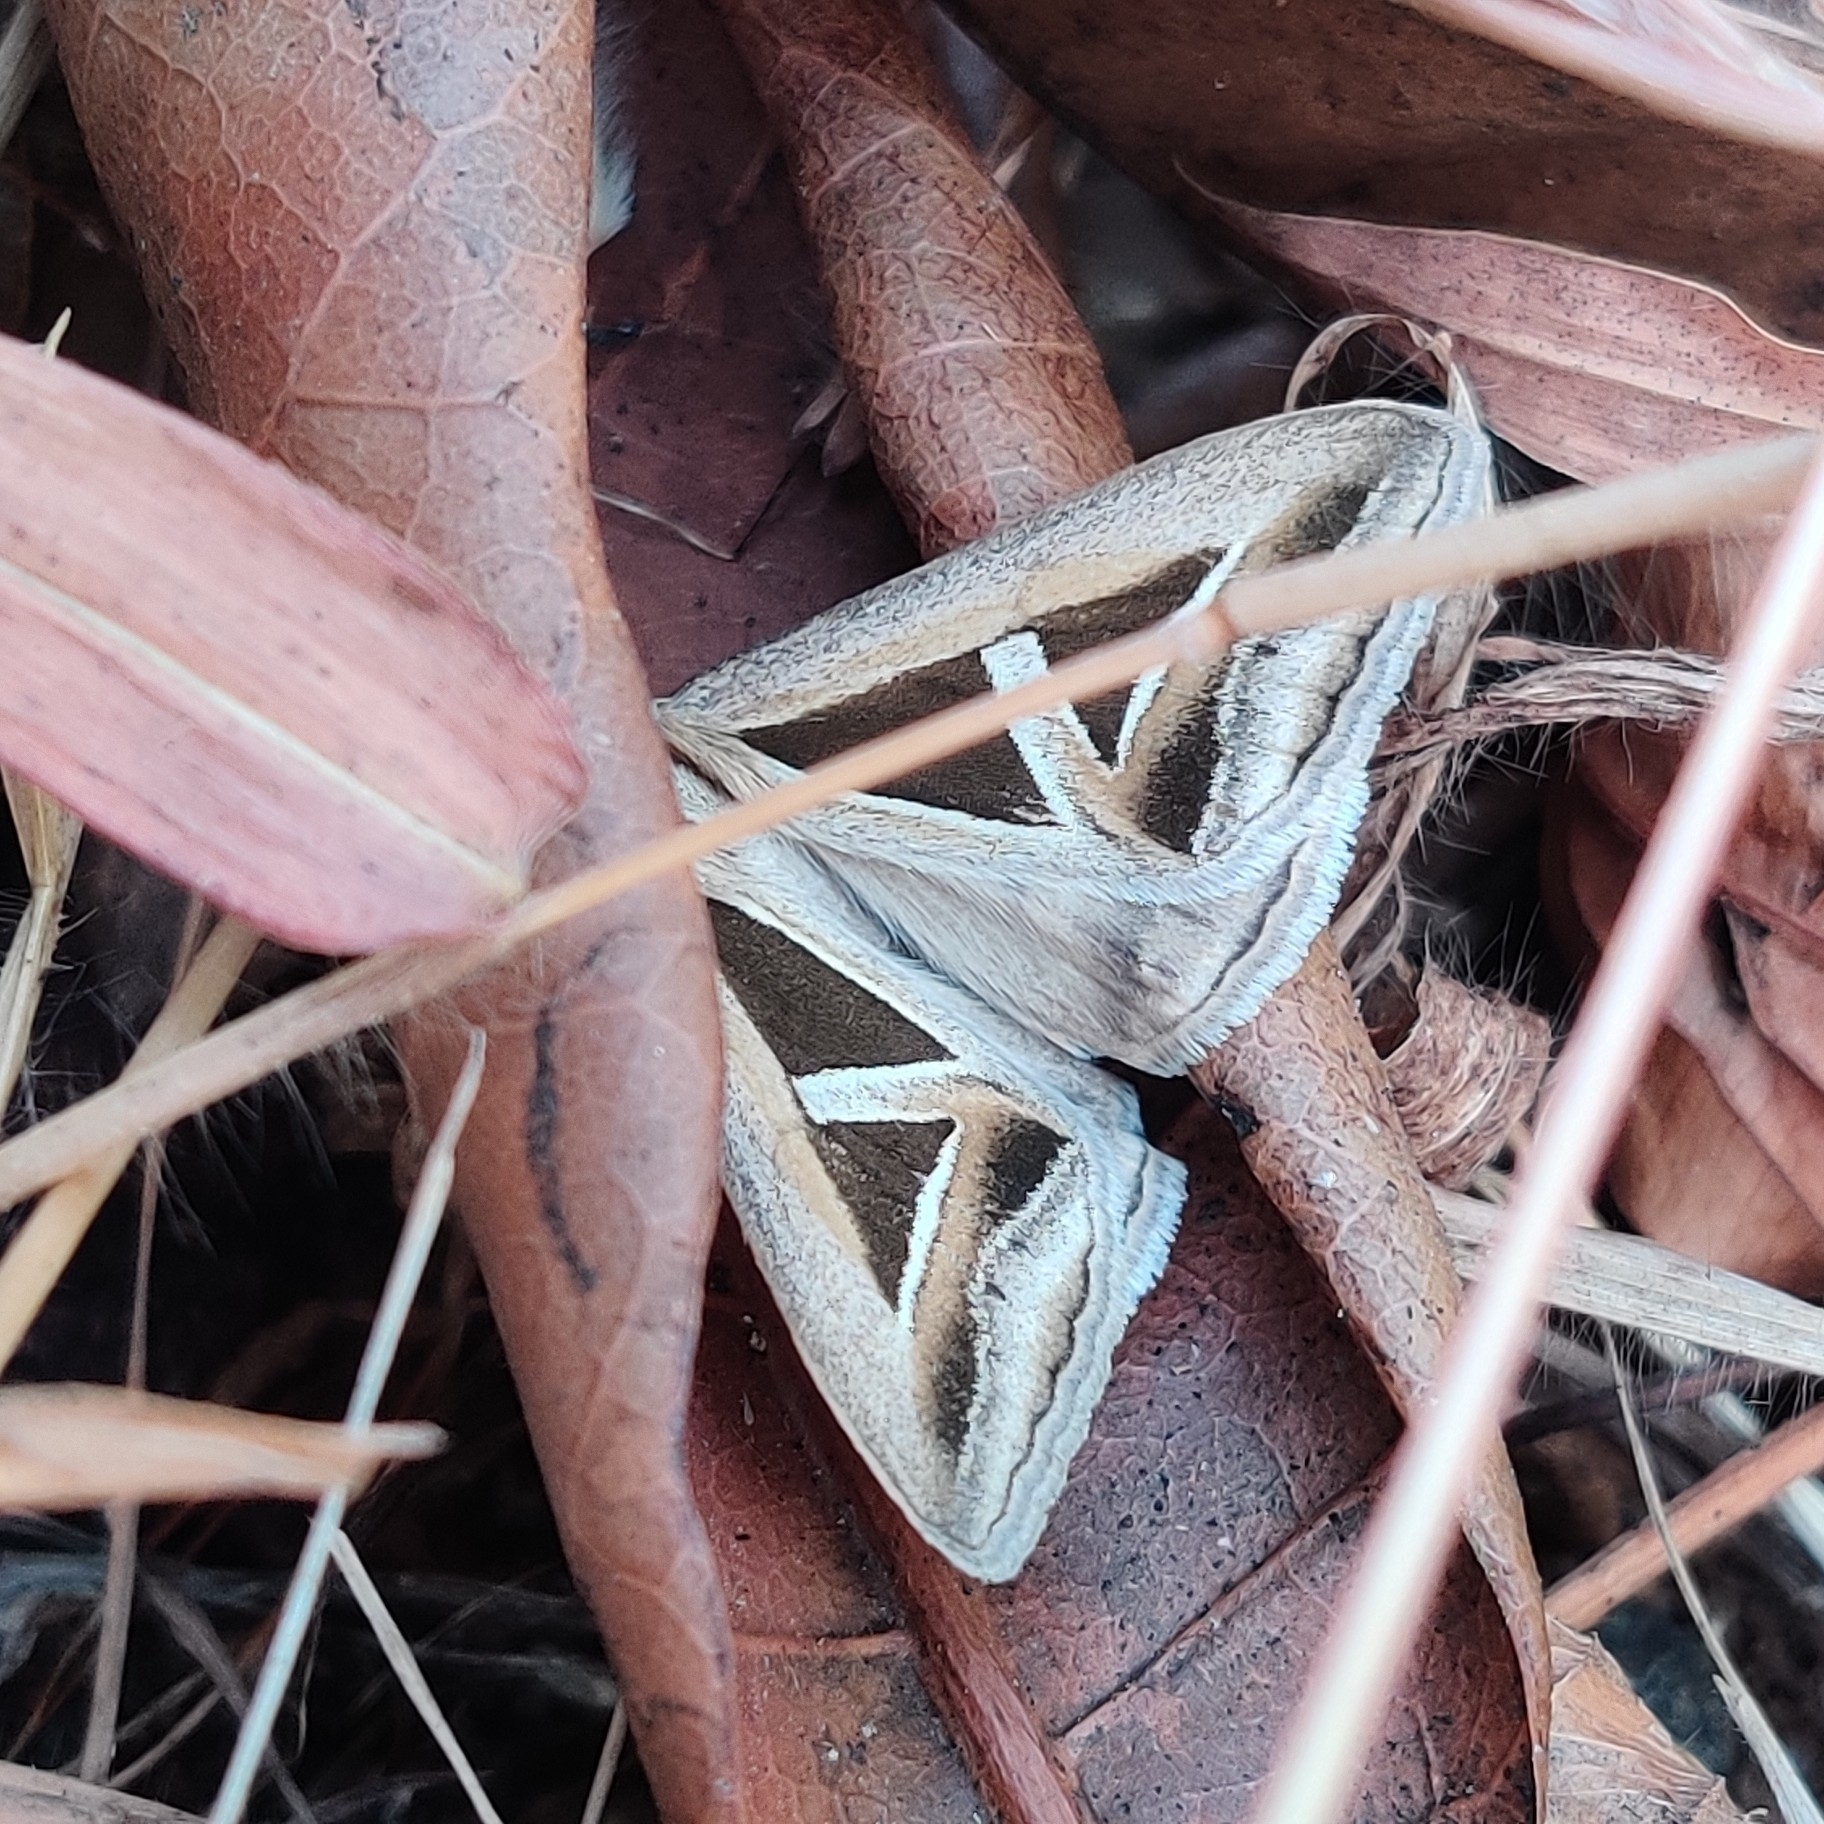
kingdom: Animalia
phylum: Arthropoda
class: Insecta
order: Lepidoptera
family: Erebidae
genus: Trigonodes
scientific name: Trigonodes hyppasia
